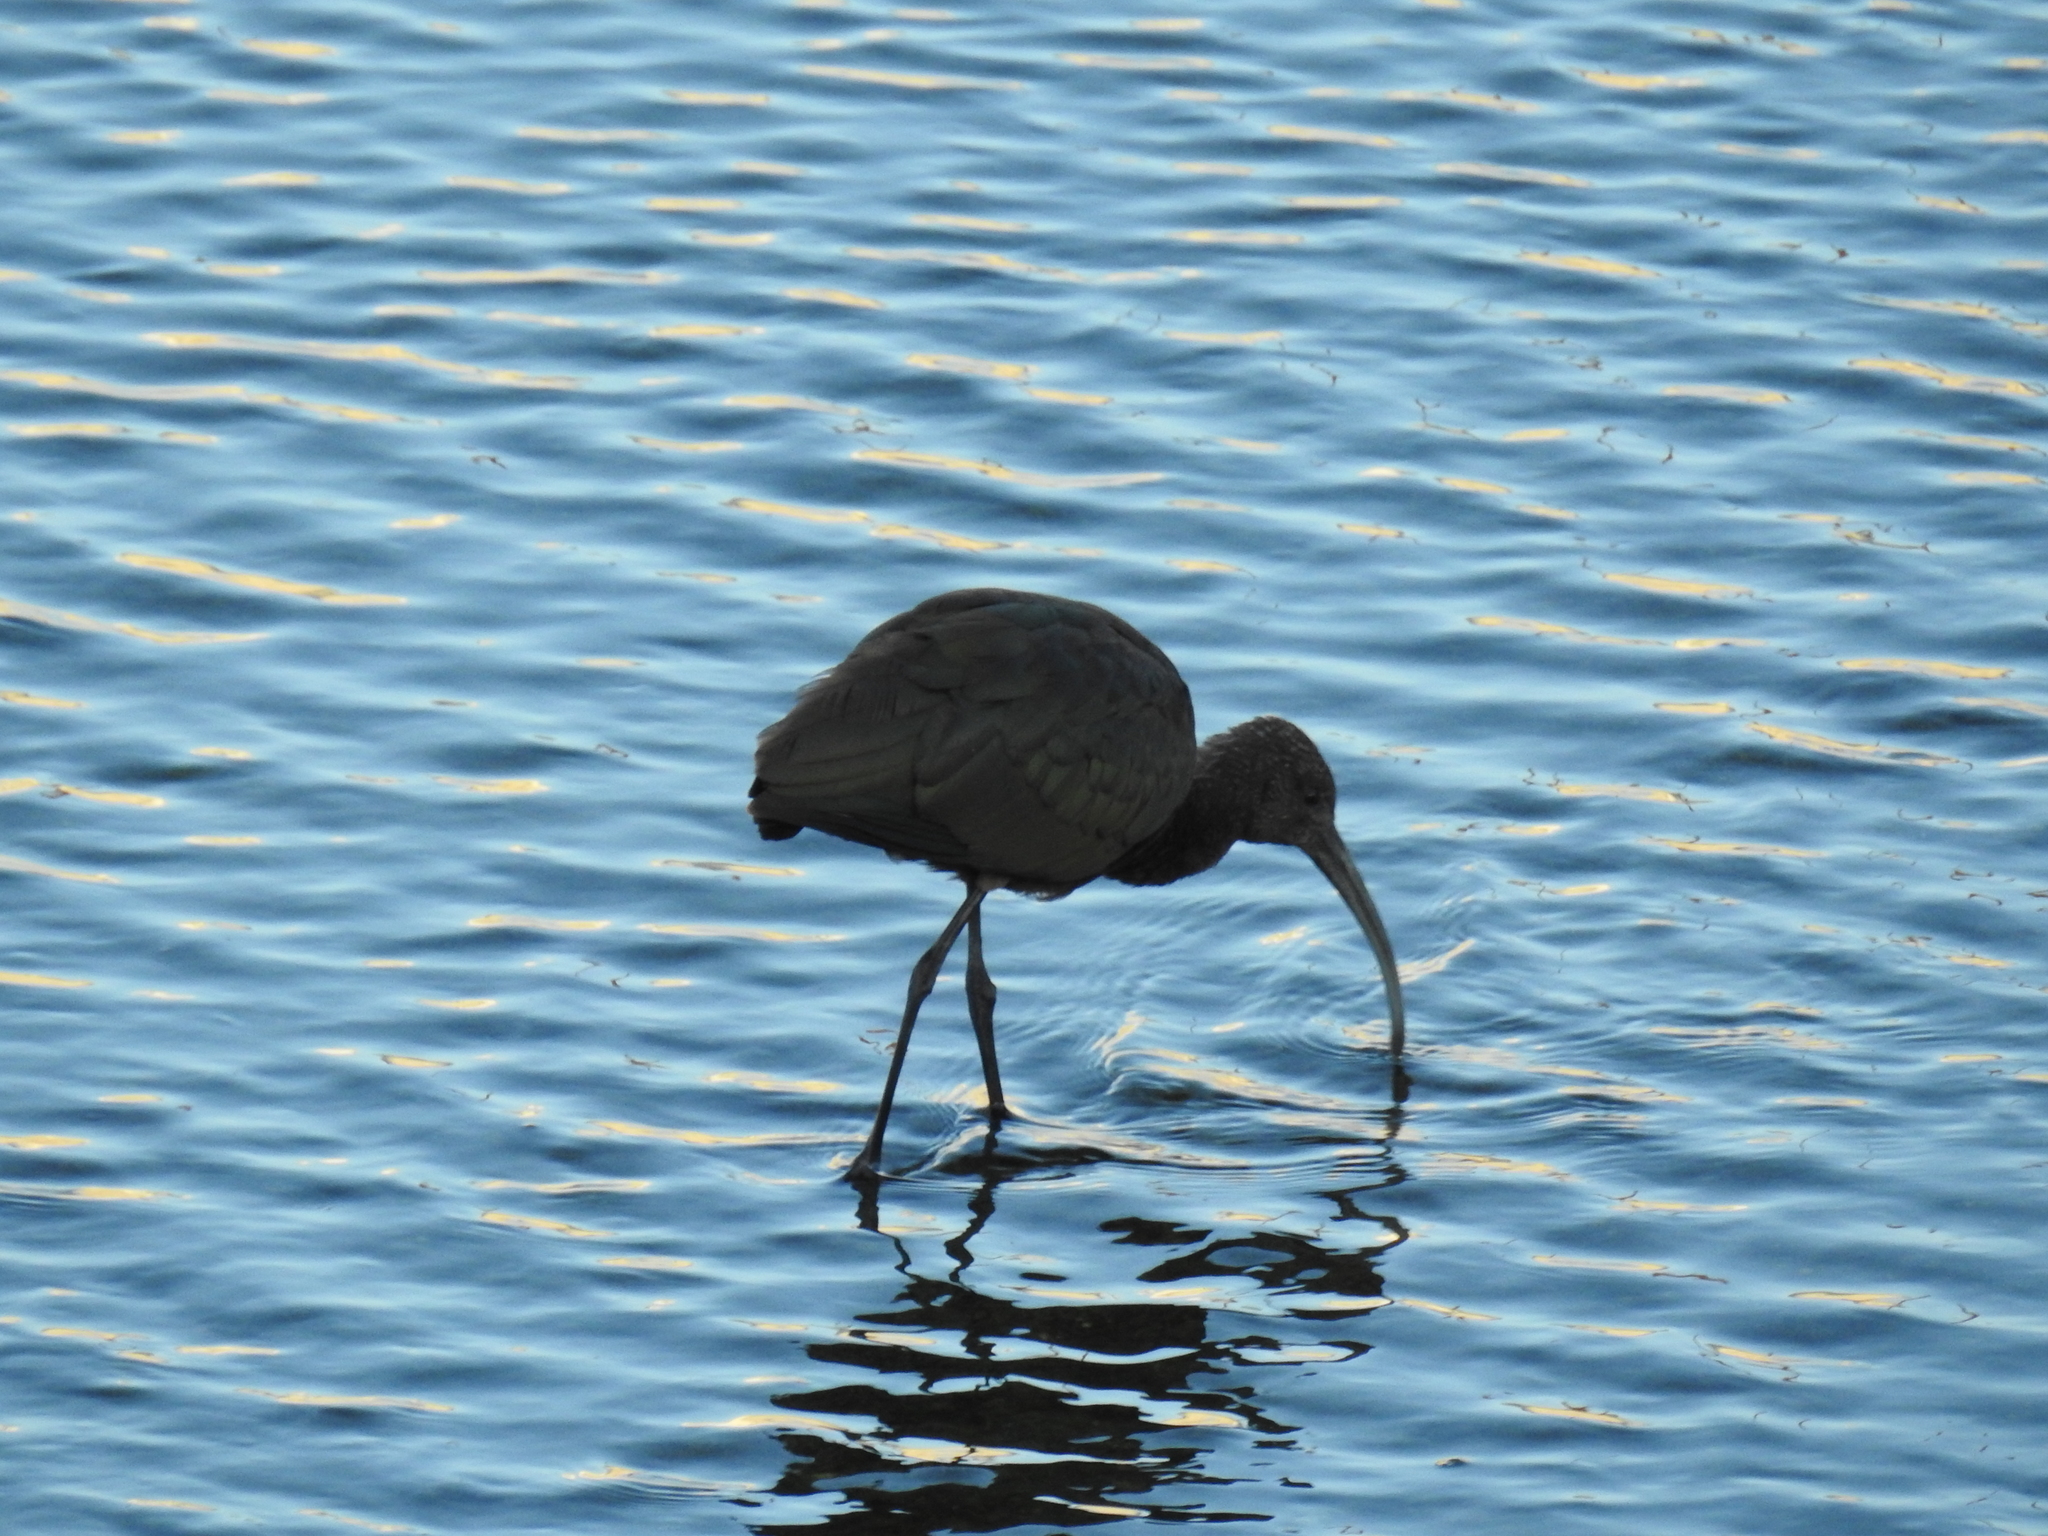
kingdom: Animalia
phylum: Chordata
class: Aves
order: Pelecaniformes
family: Threskiornithidae
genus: Plegadis
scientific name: Plegadis chihi
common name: White-faced ibis
